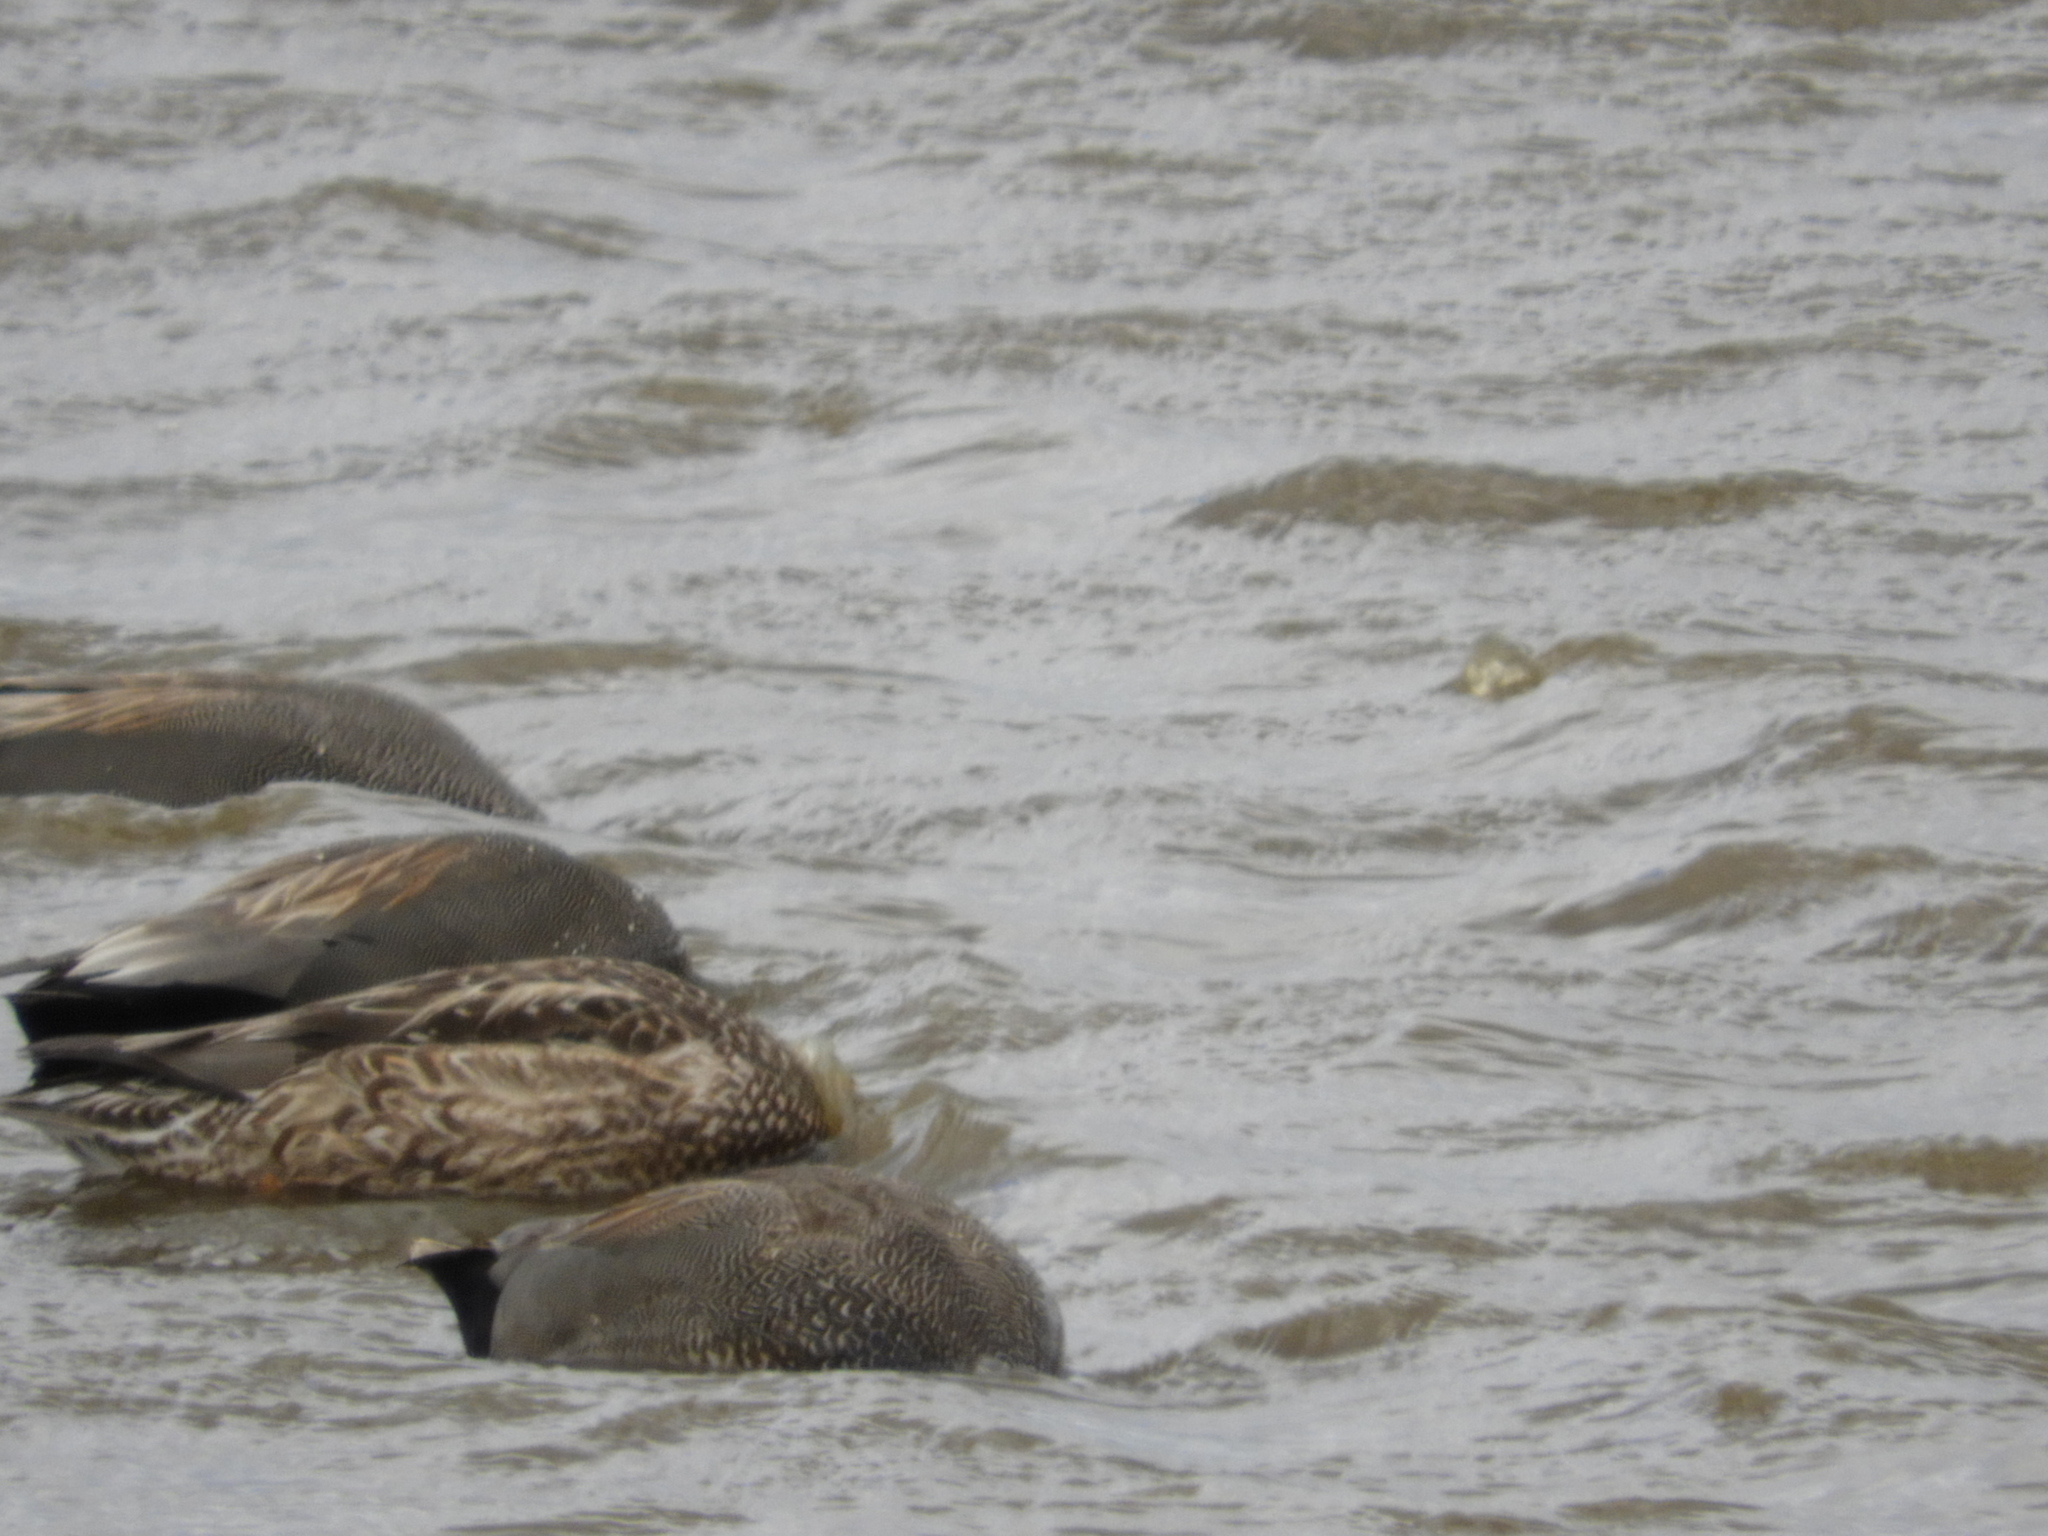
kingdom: Animalia
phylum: Chordata
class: Aves
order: Anseriformes
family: Anatidae
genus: Mareca
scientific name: Mareca strepera
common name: Gadwall
